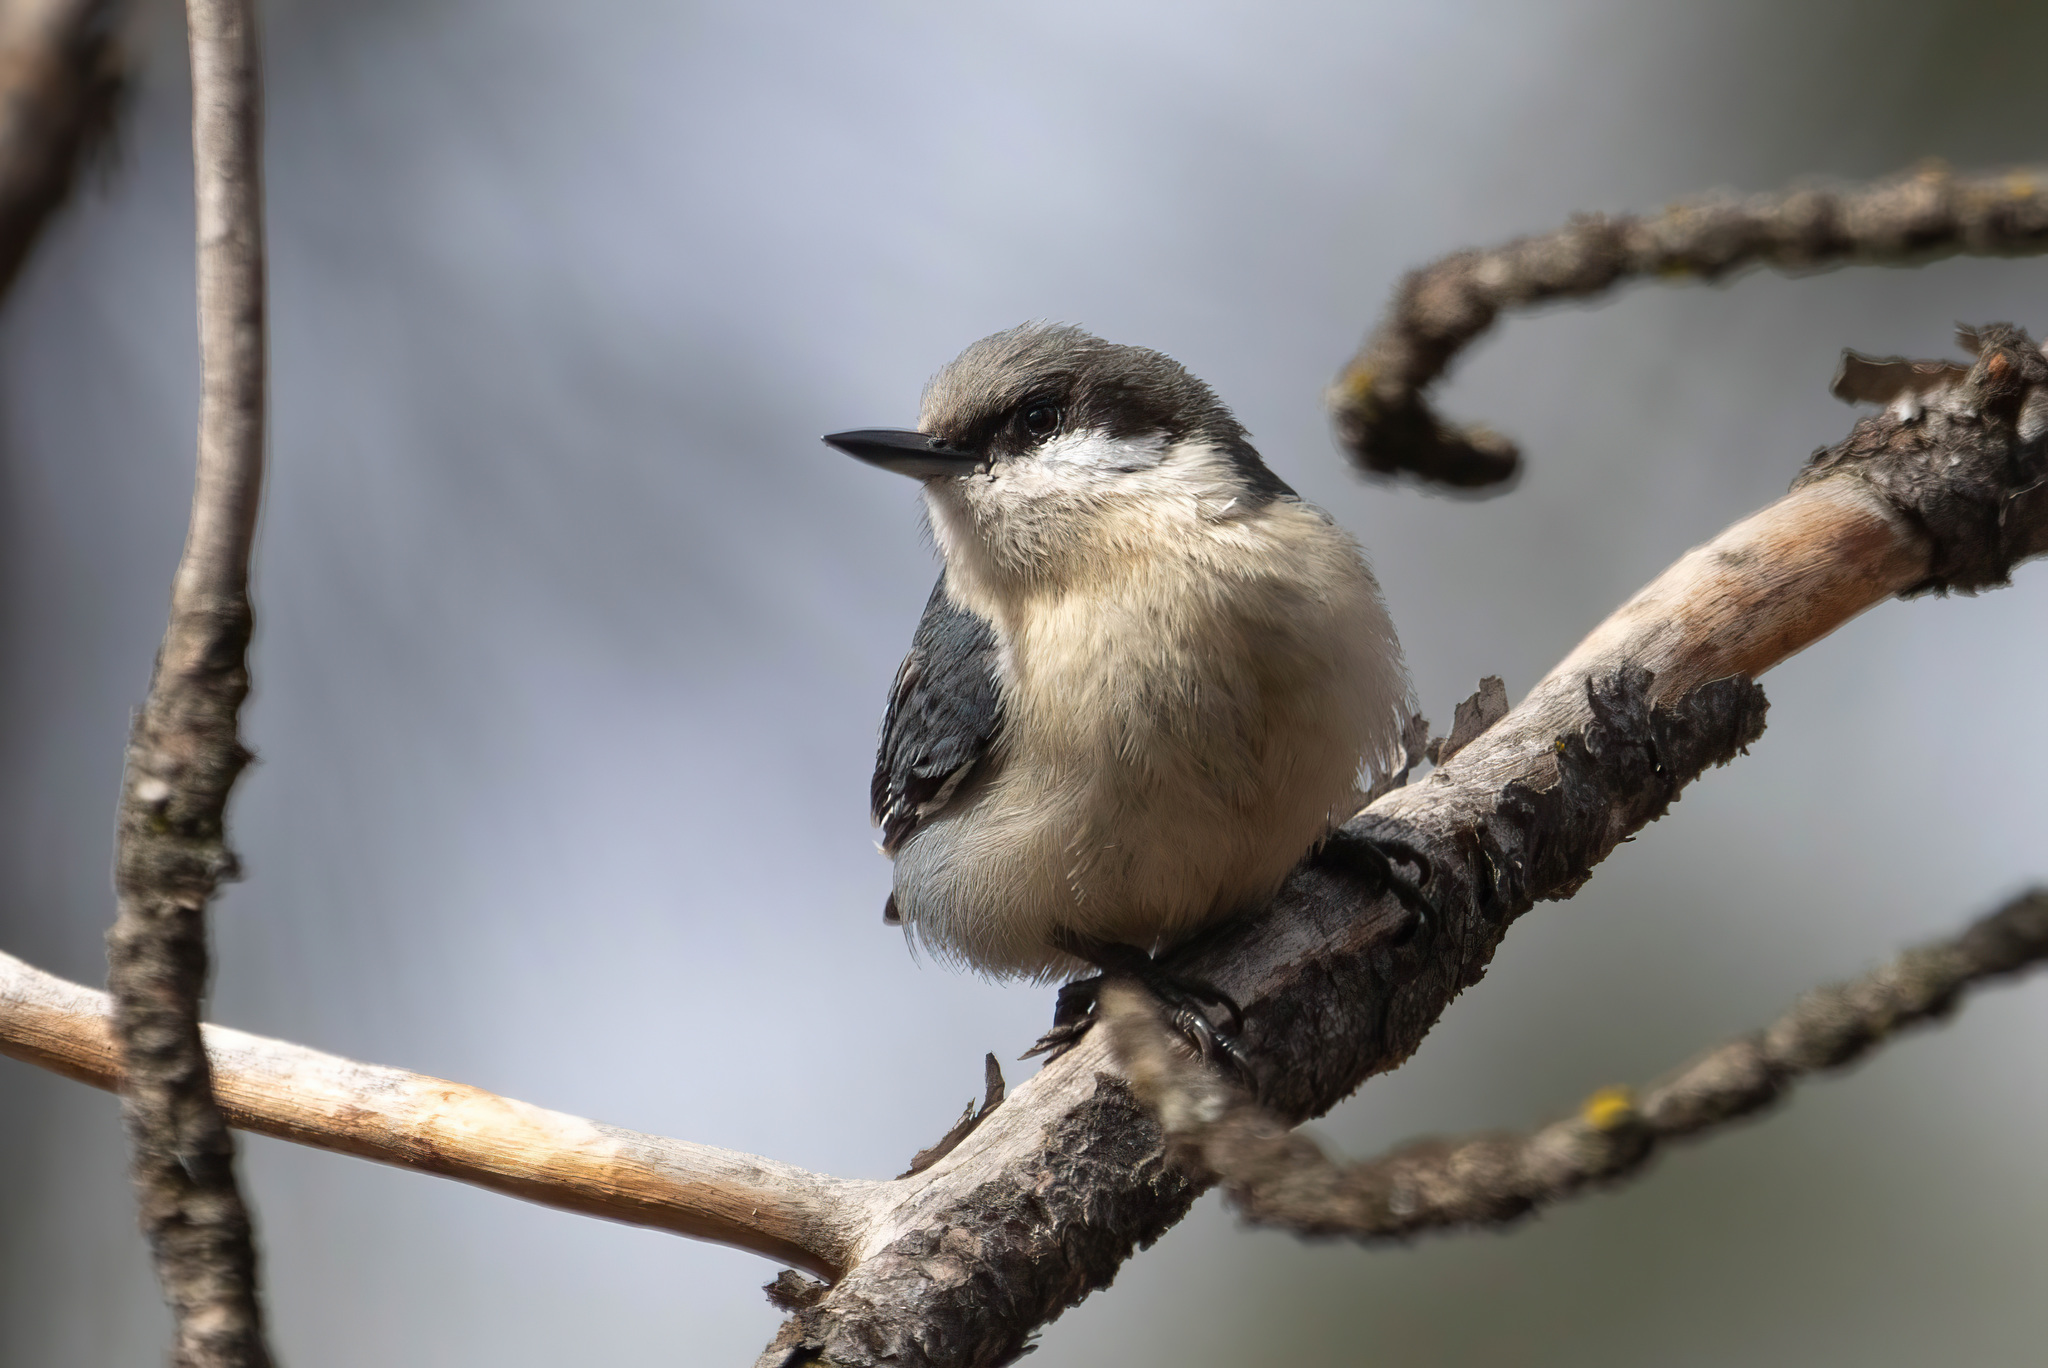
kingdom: Animalia
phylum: Chordata
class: Aves
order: Passeriformes
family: Sittidae
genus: Sitta
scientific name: Sitta pygmaea
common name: Pygmy nuthatch
